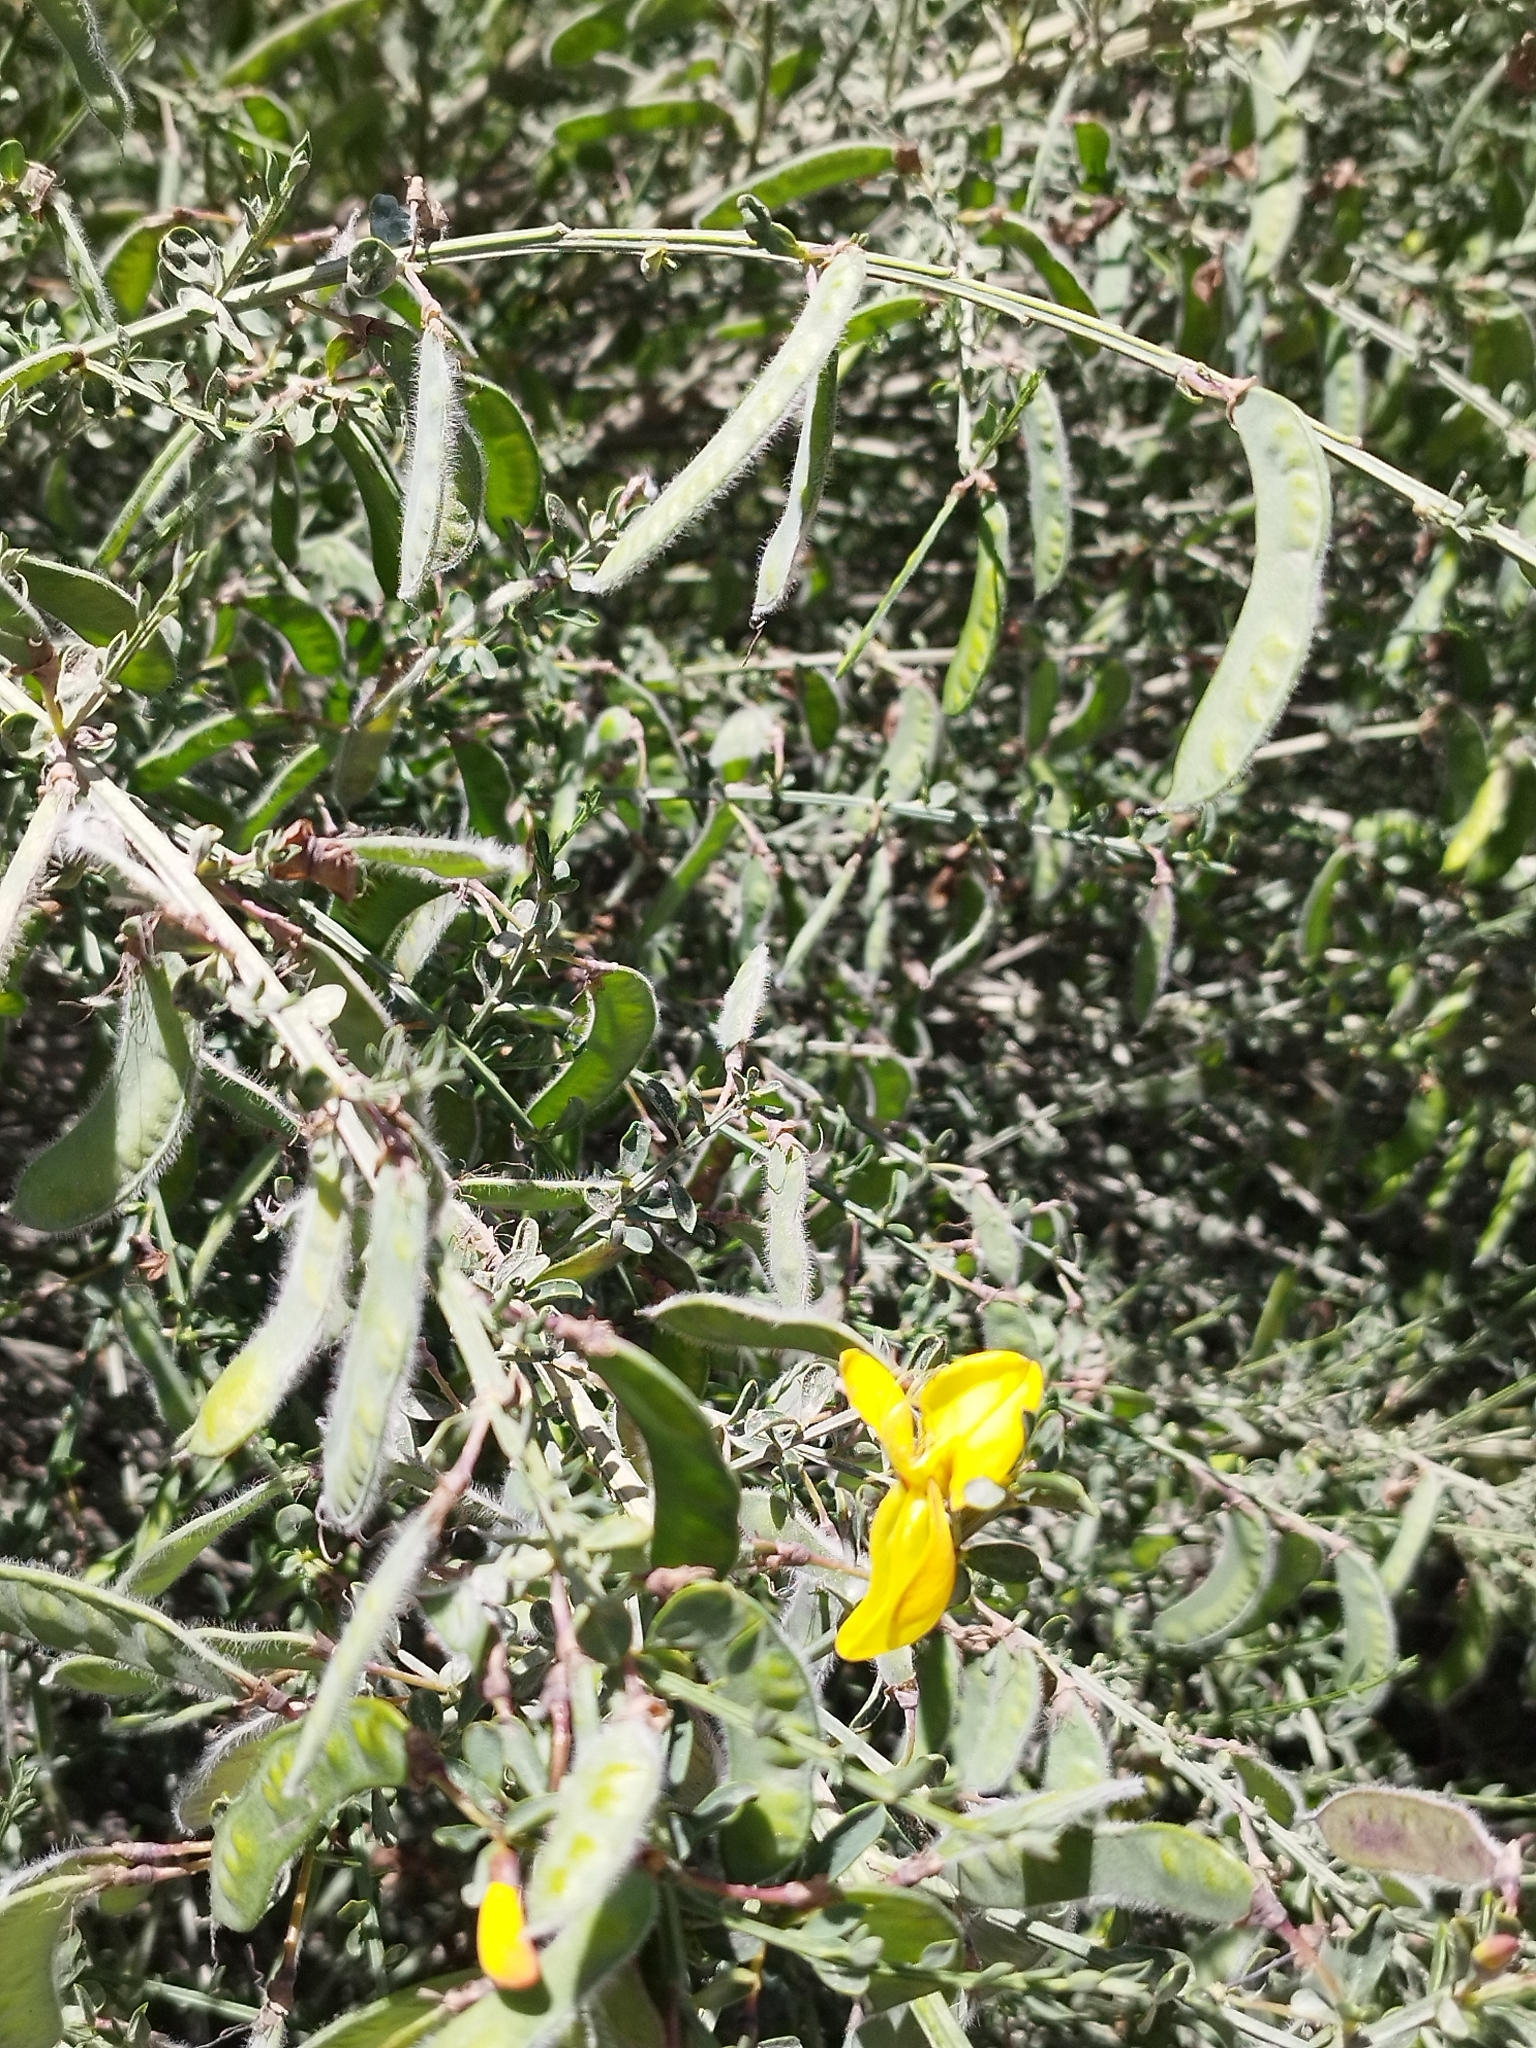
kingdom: Plantae
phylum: Tracheophyta
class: Magnoliopsida
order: Fabales
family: Fabaceae
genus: Cytisus
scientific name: Cytisus scoparius
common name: Scotch broom
